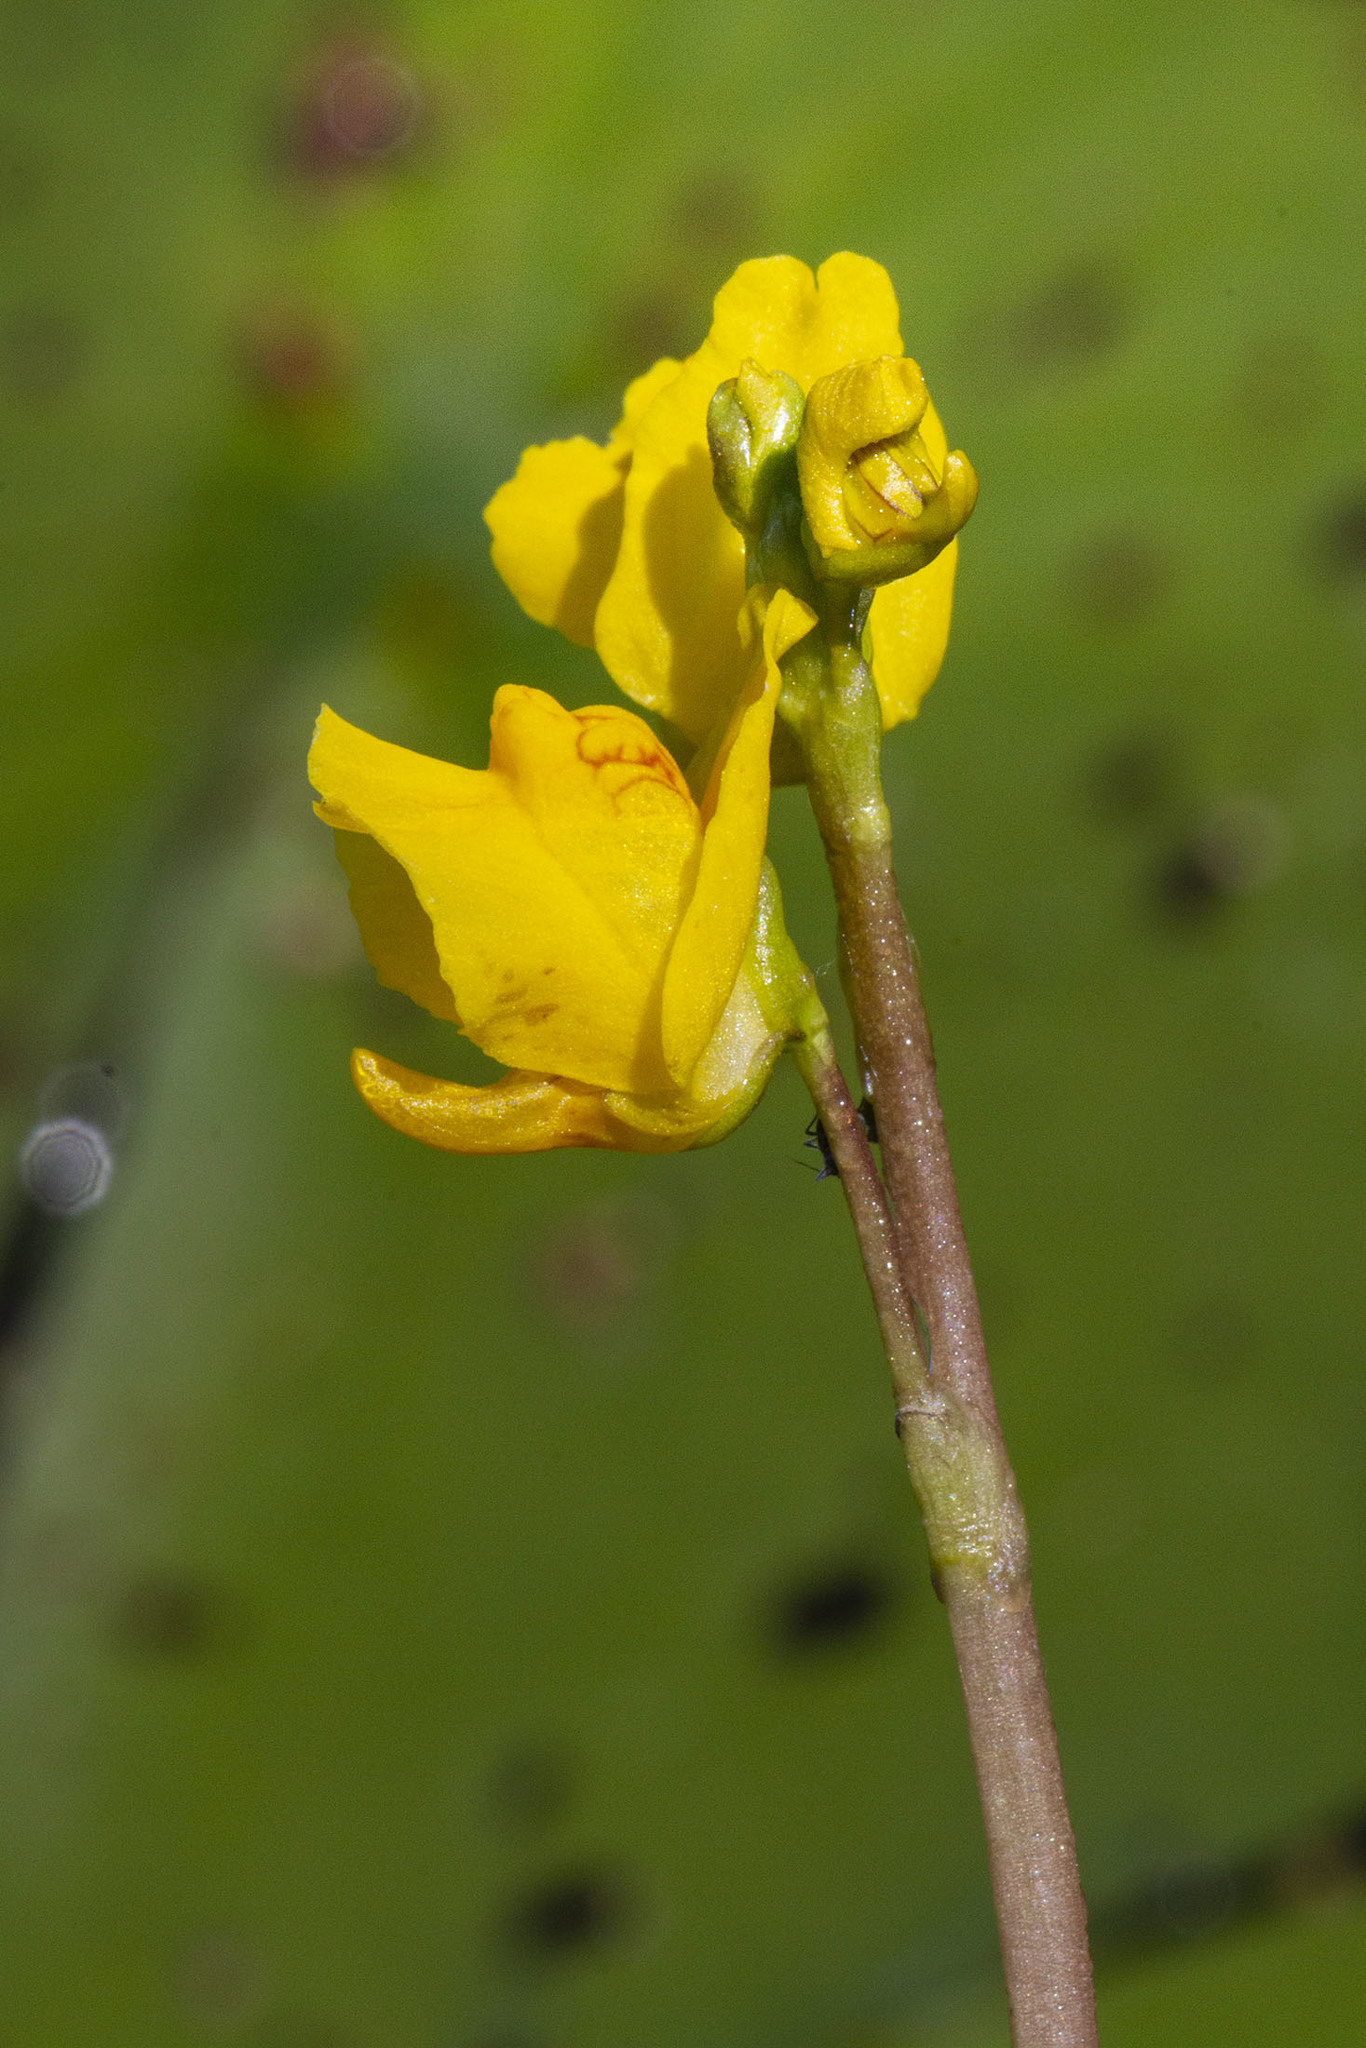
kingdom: Plantae
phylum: Tracheophyta
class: Magnoliopsida
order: Lamiales
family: Lentibulariaceae
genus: Utricularia
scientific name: Utricularia macrorhiza
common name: Common bladderwort
